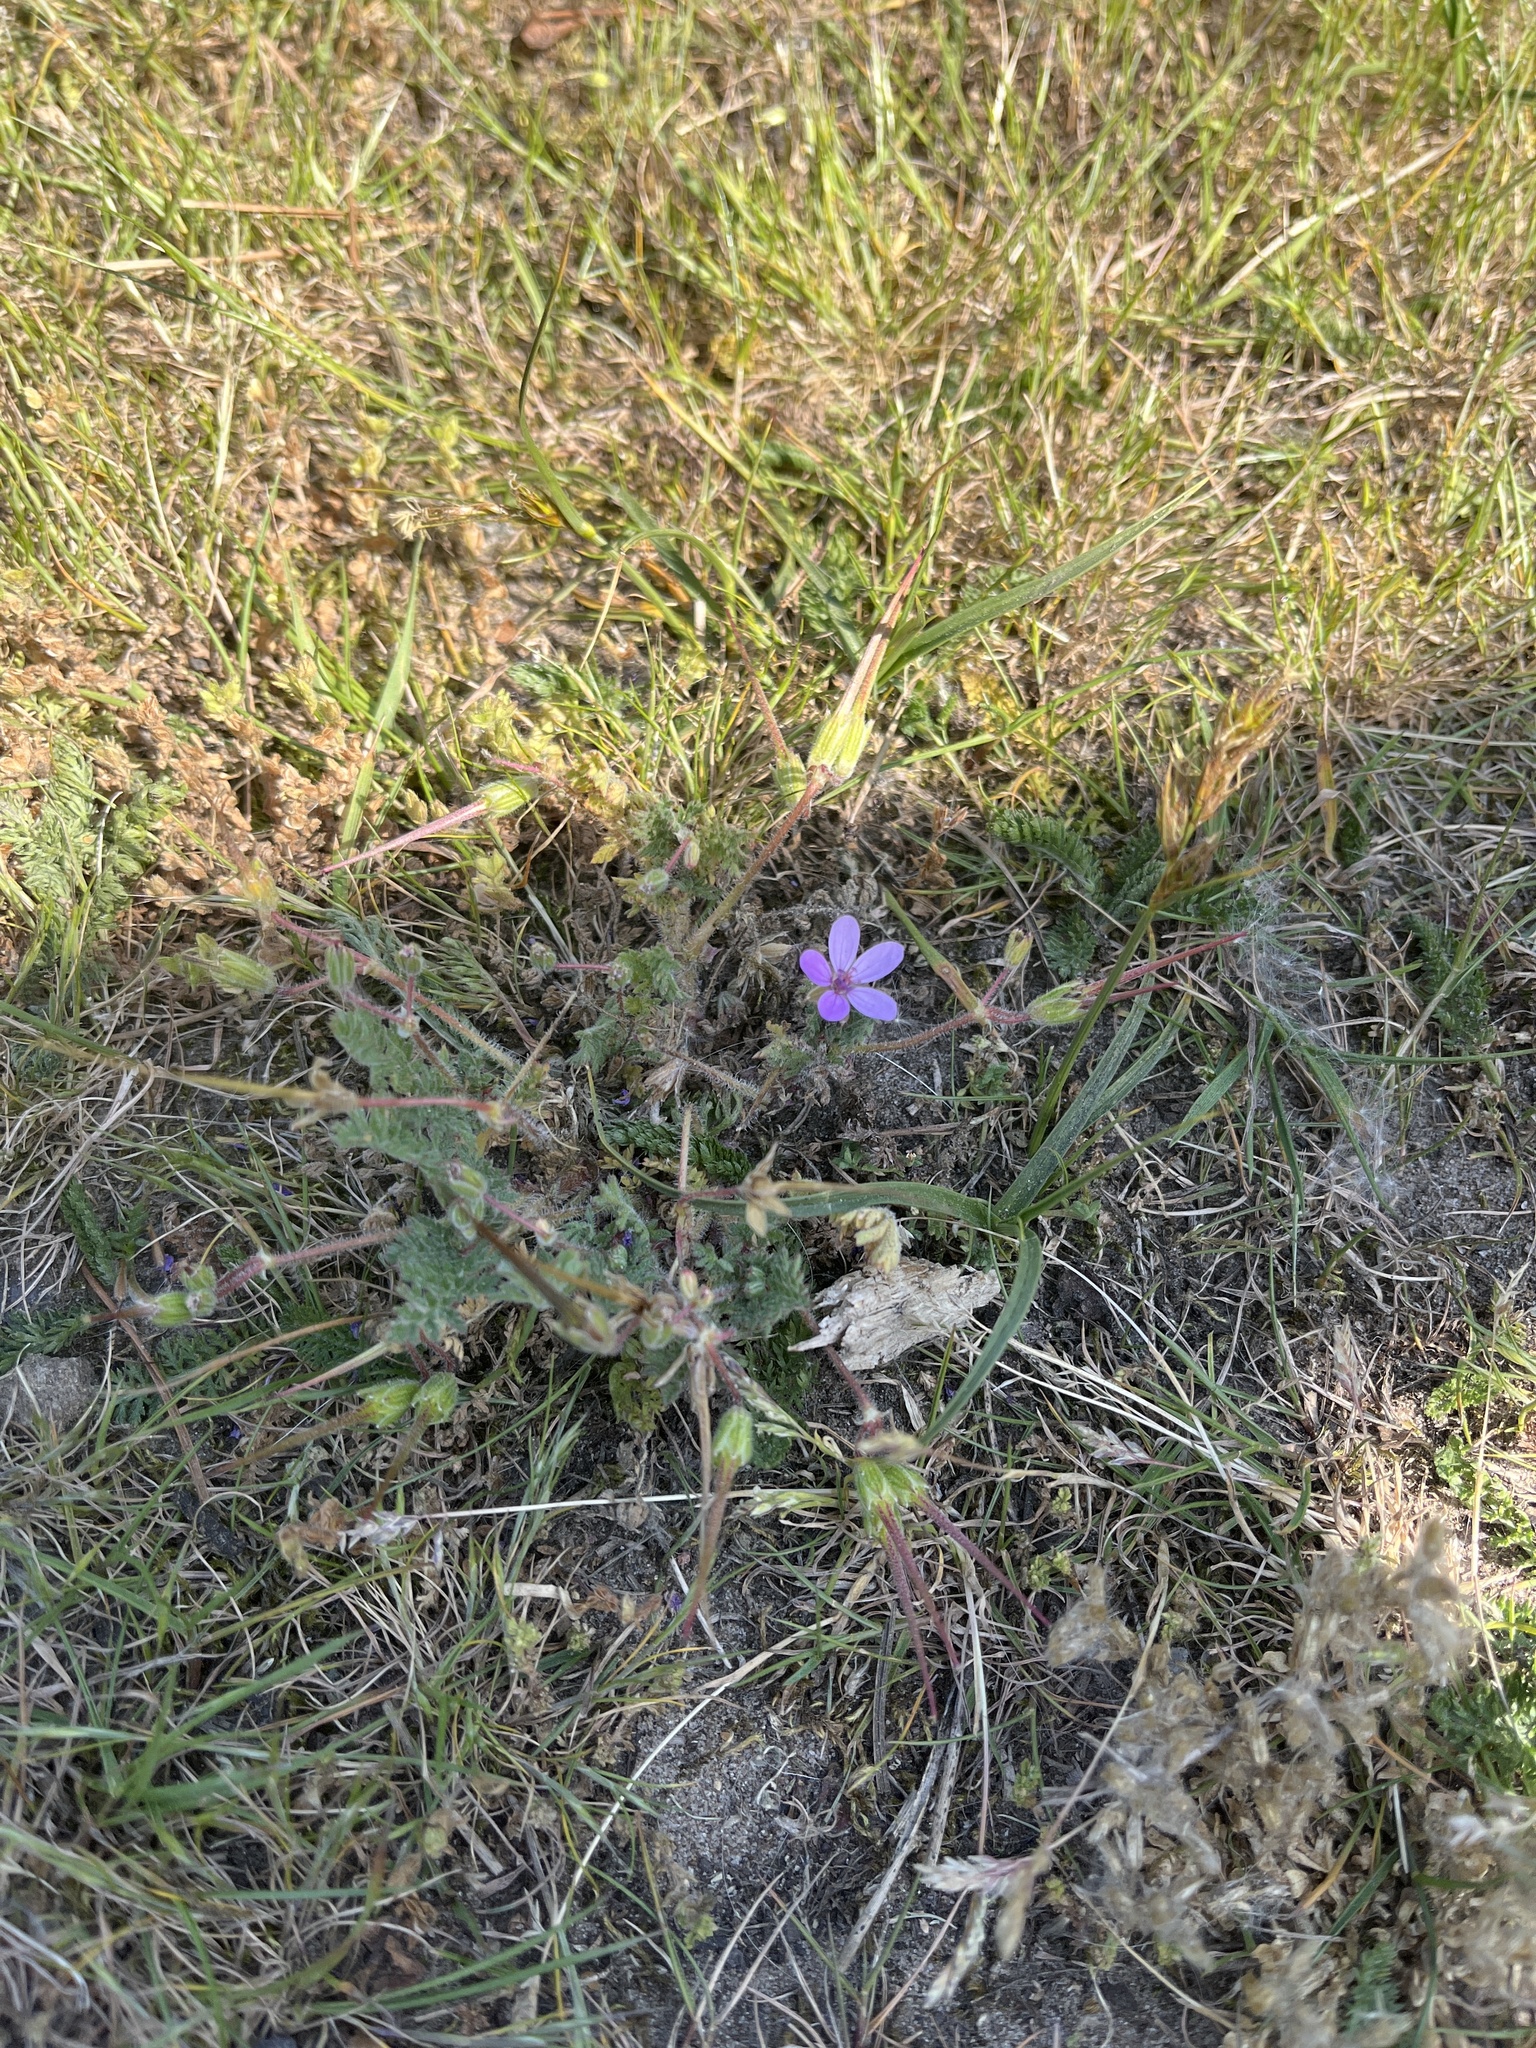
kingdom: Plantae
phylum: Tracheophyta
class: Magnoliopsida
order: Geraniales
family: Geraniaceae
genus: Erodium
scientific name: Erodium cicutarium
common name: Common stork's-bill
